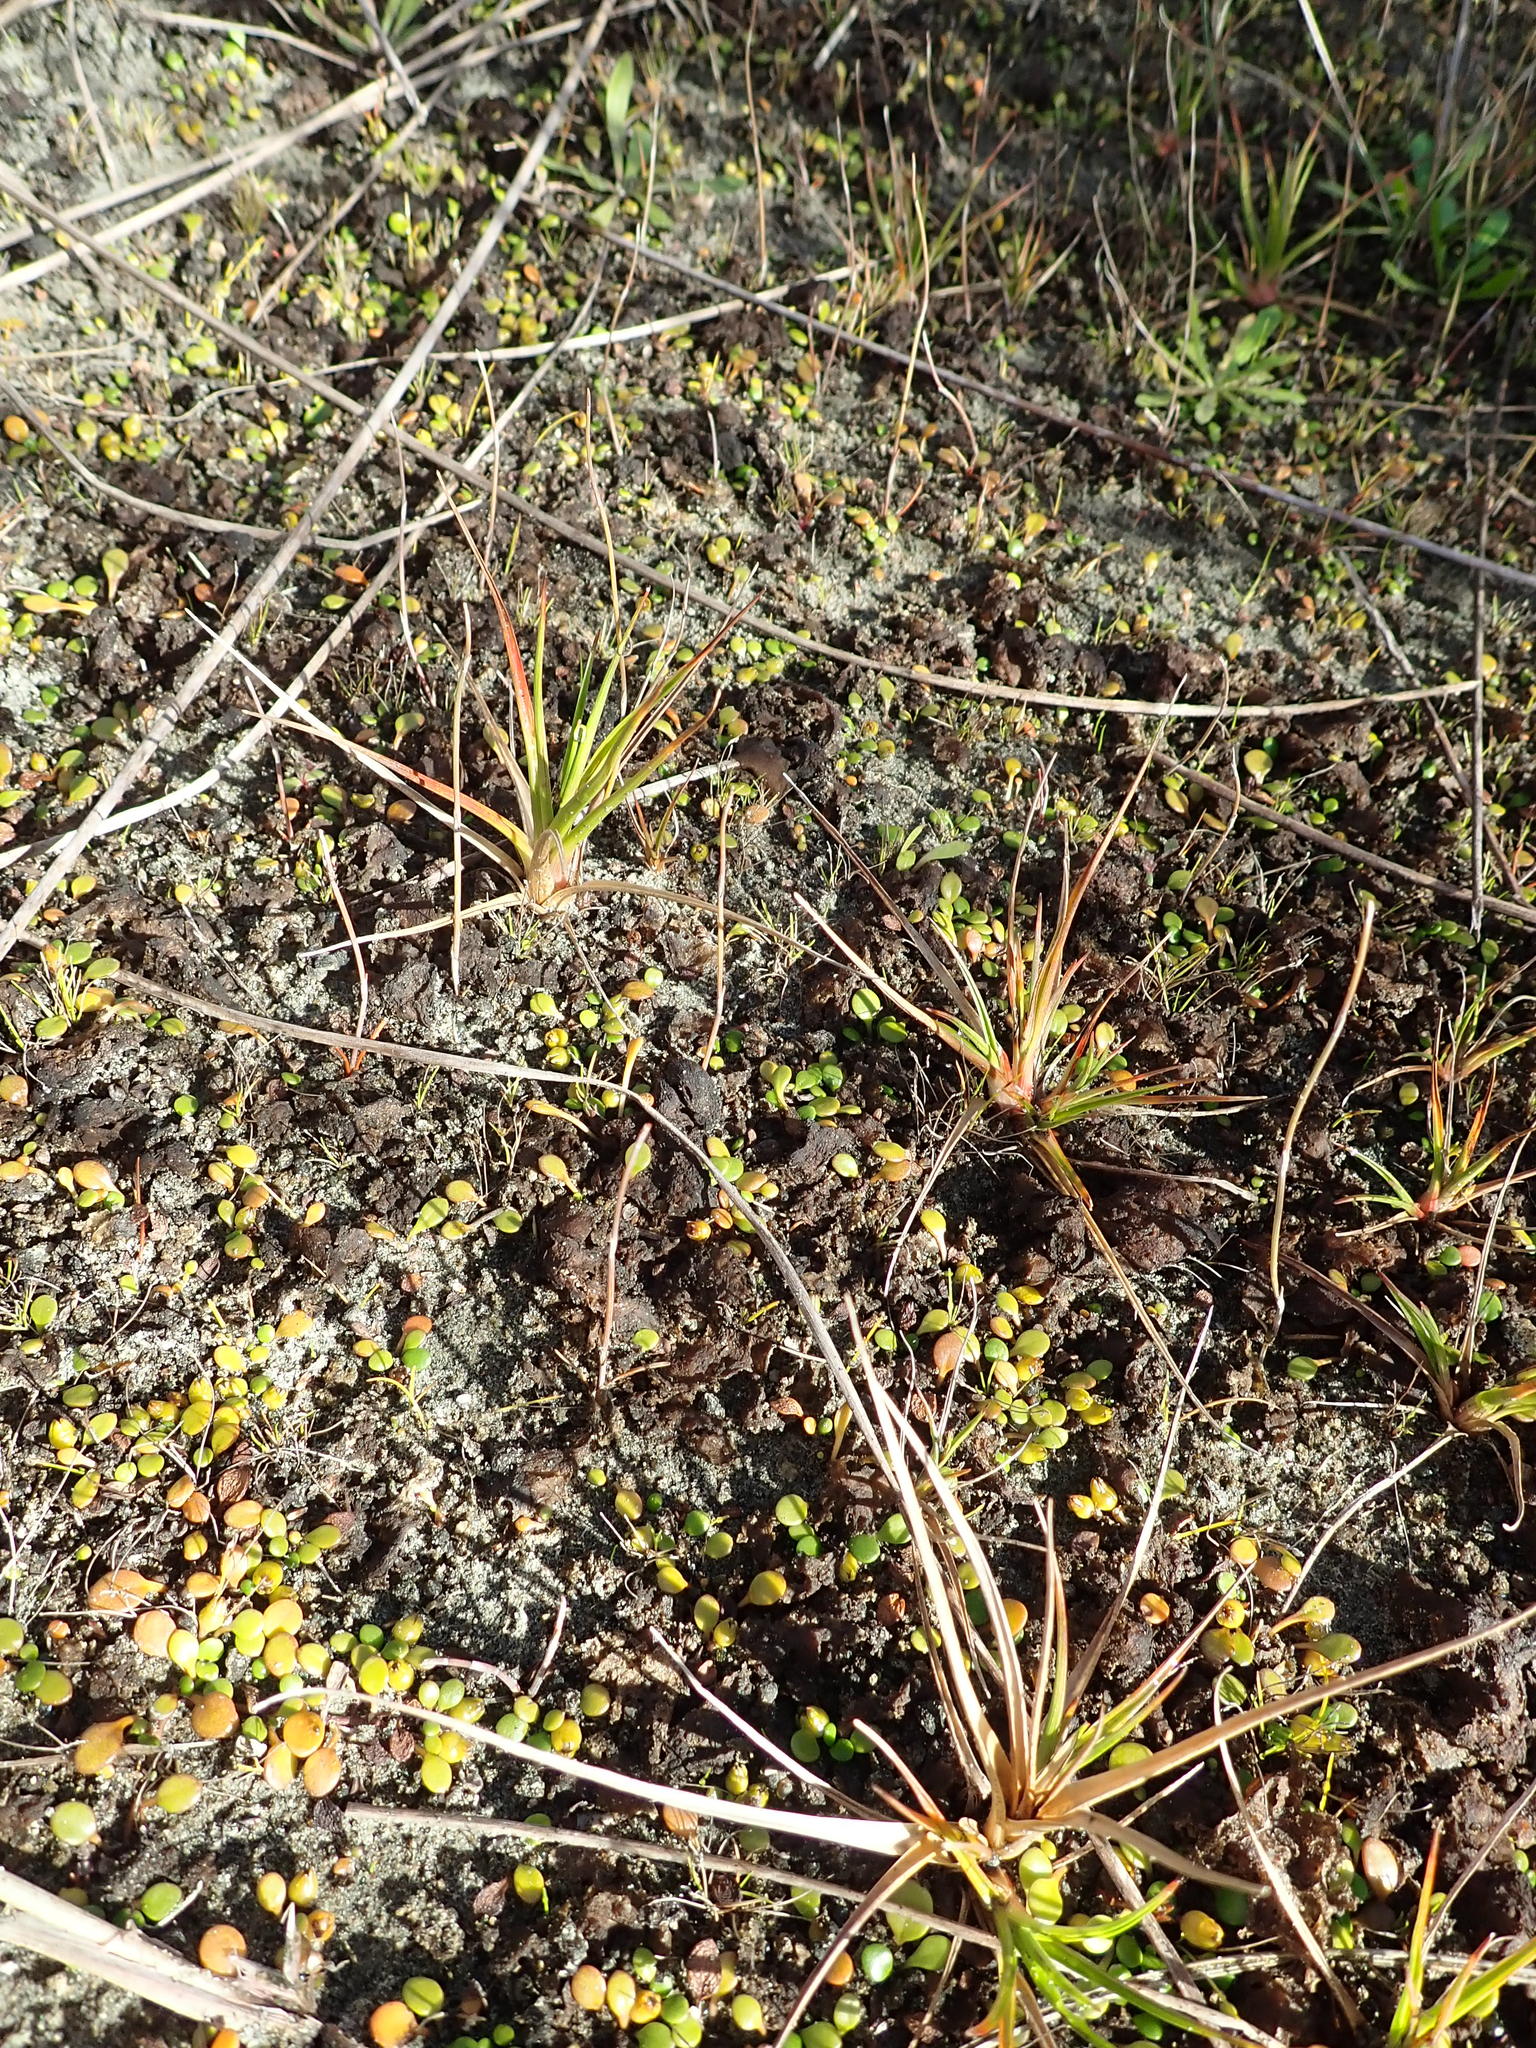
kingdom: Plantae
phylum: Tracheophyta
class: Liliopsida
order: Poales
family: Juncaceae
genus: Juncus
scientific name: Juncus caespiticius
